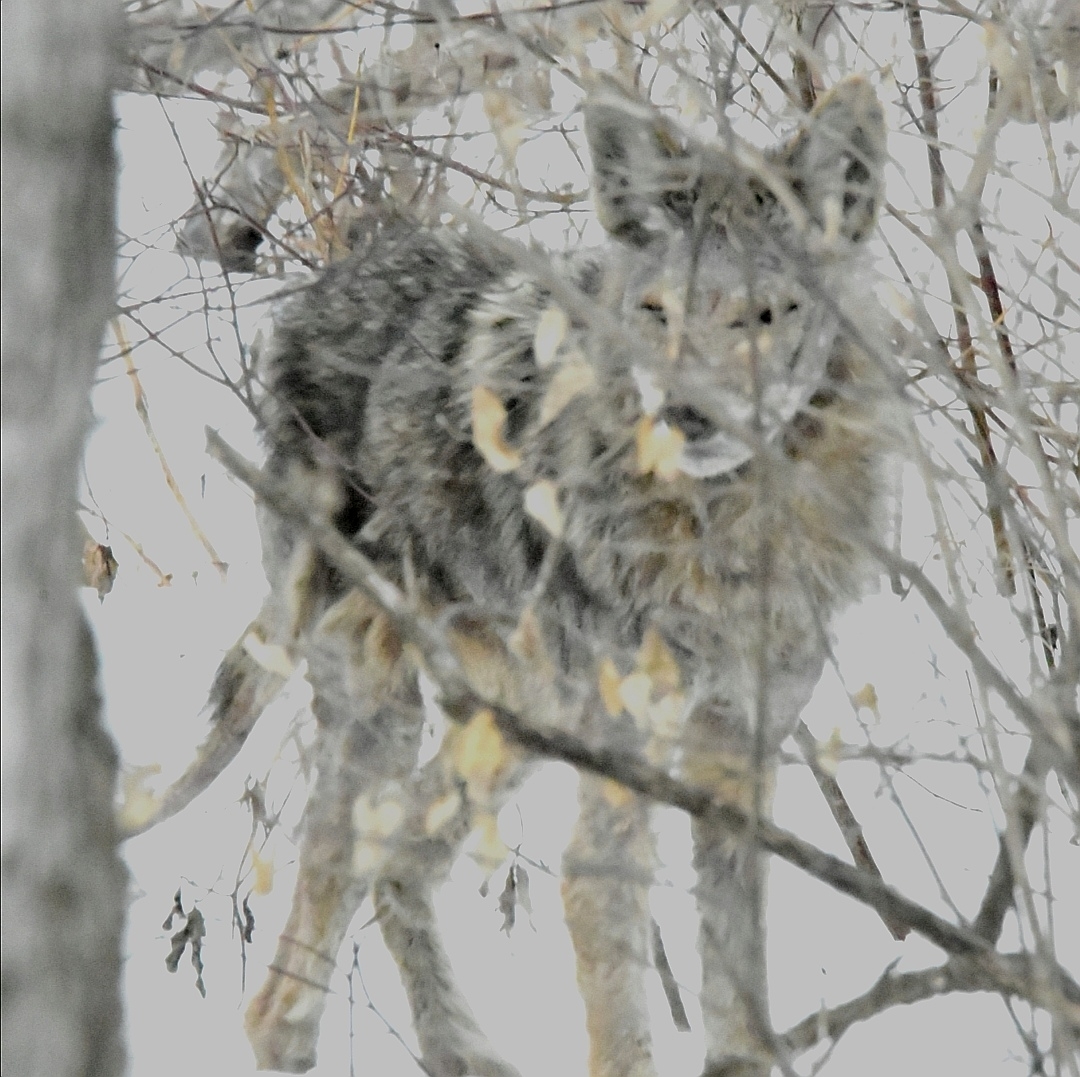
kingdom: Animalia
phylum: Chordata
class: Mammalia
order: Carnivora
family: Canidae
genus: Canis
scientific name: Canis latrans
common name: Coyote
